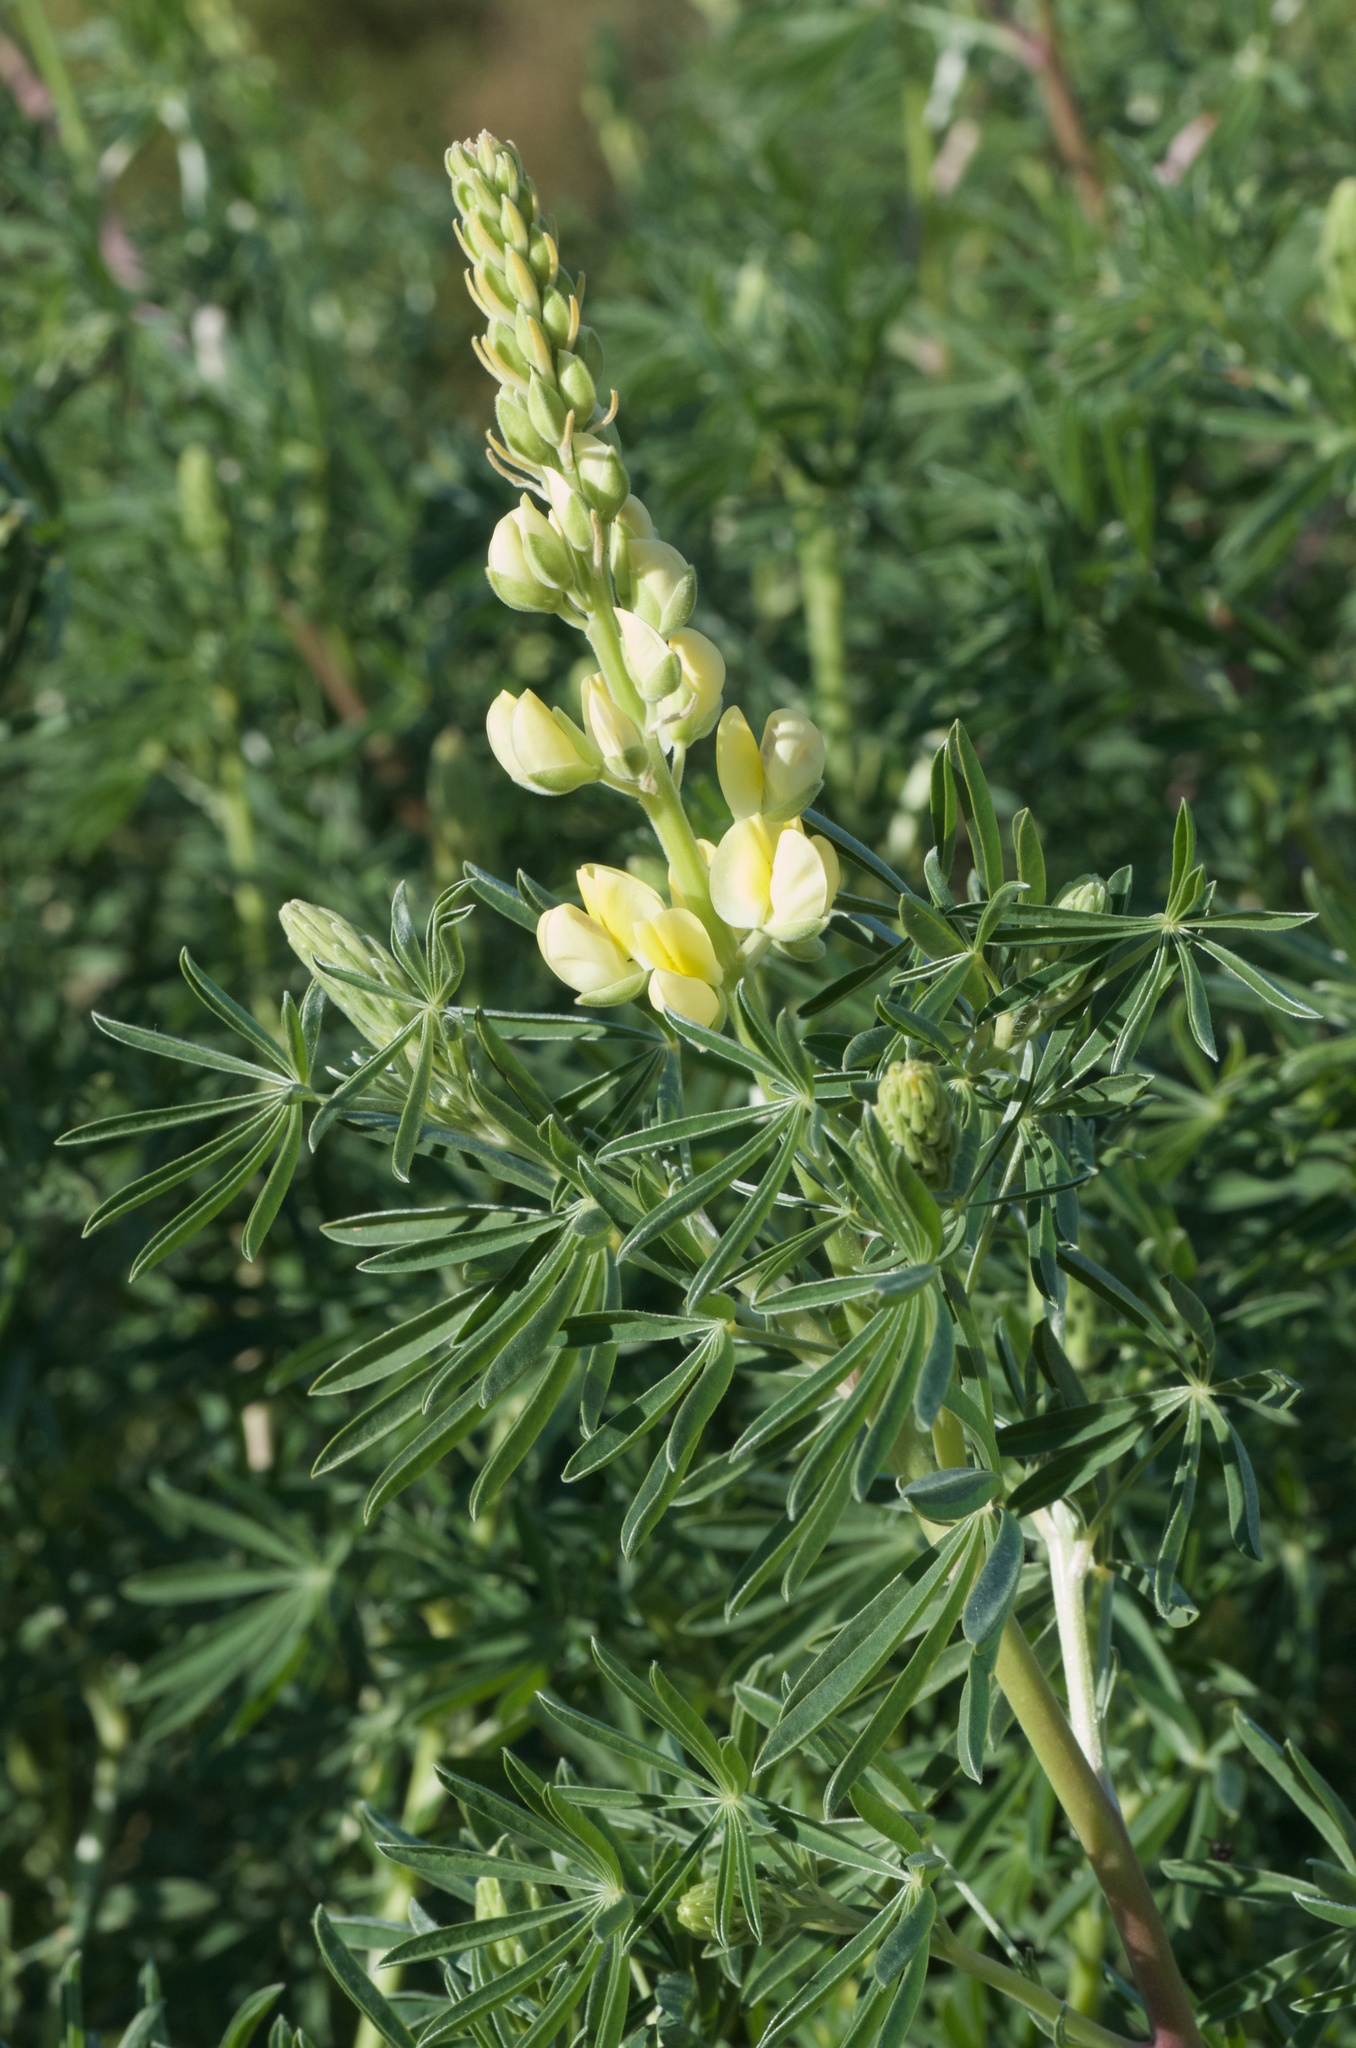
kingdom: Plantae
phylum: Tracheophyta
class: Magnoliopsida
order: Fabales
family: Fabaceae
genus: Lupinus
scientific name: Lupinus arboreus
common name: Yellow bush lupine
